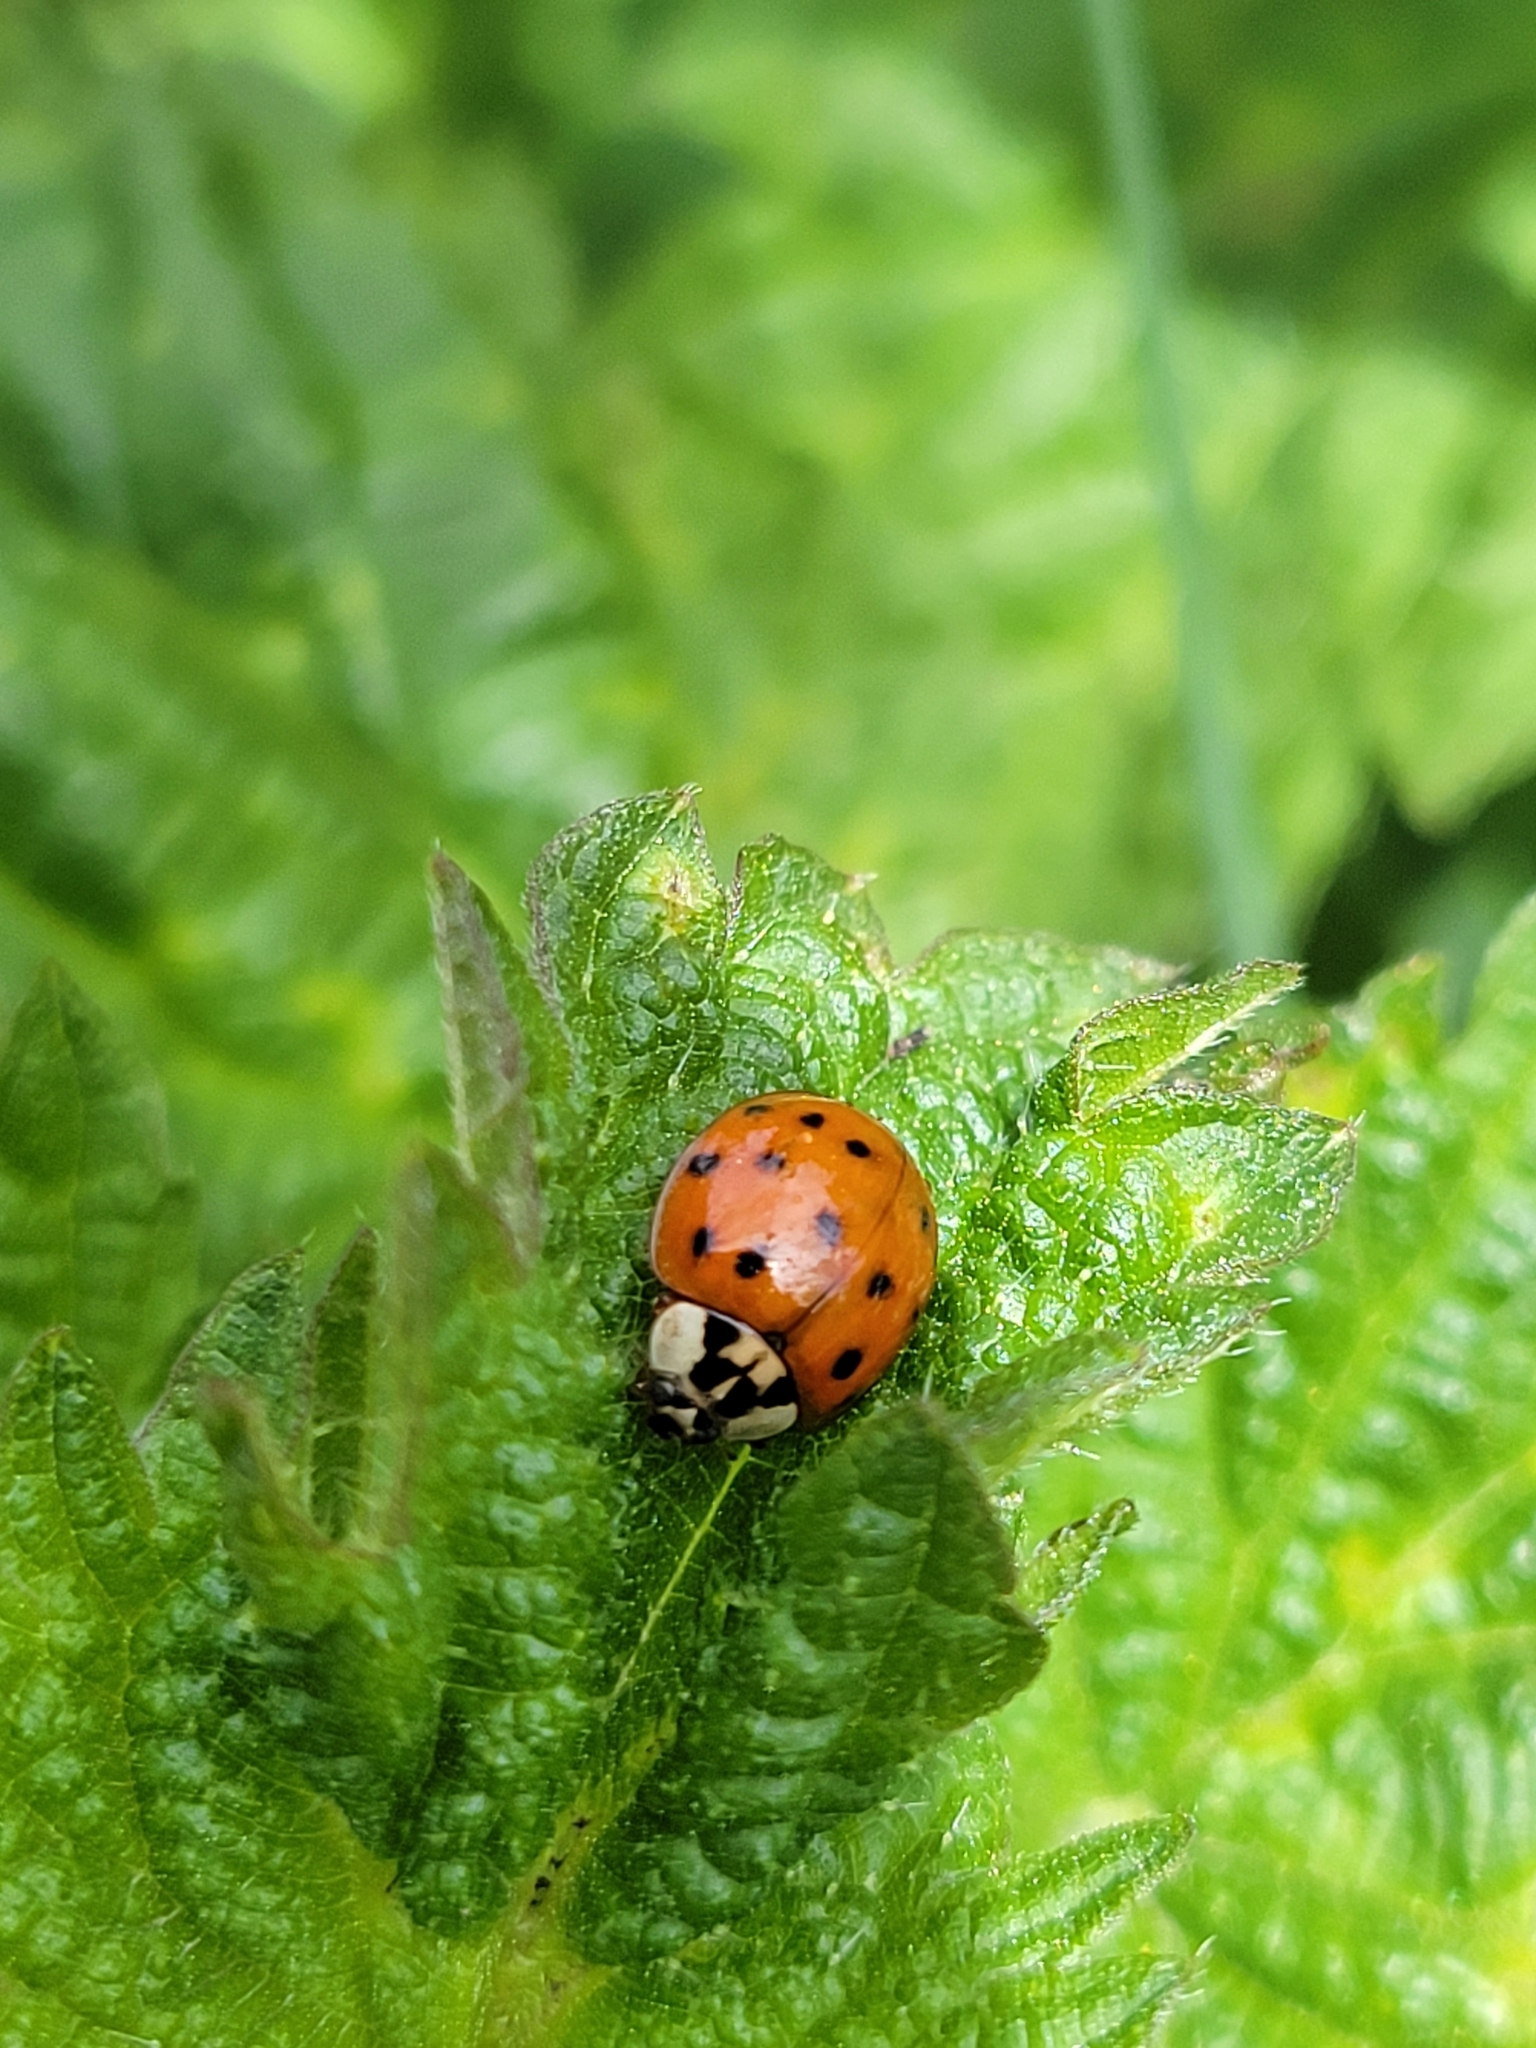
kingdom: Animalia
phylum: Arthropoda
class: Insecta
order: Coleoptera
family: Coccinellidae
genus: Harmonia
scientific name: Harmonia axyridis
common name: Harlequin ladybird
